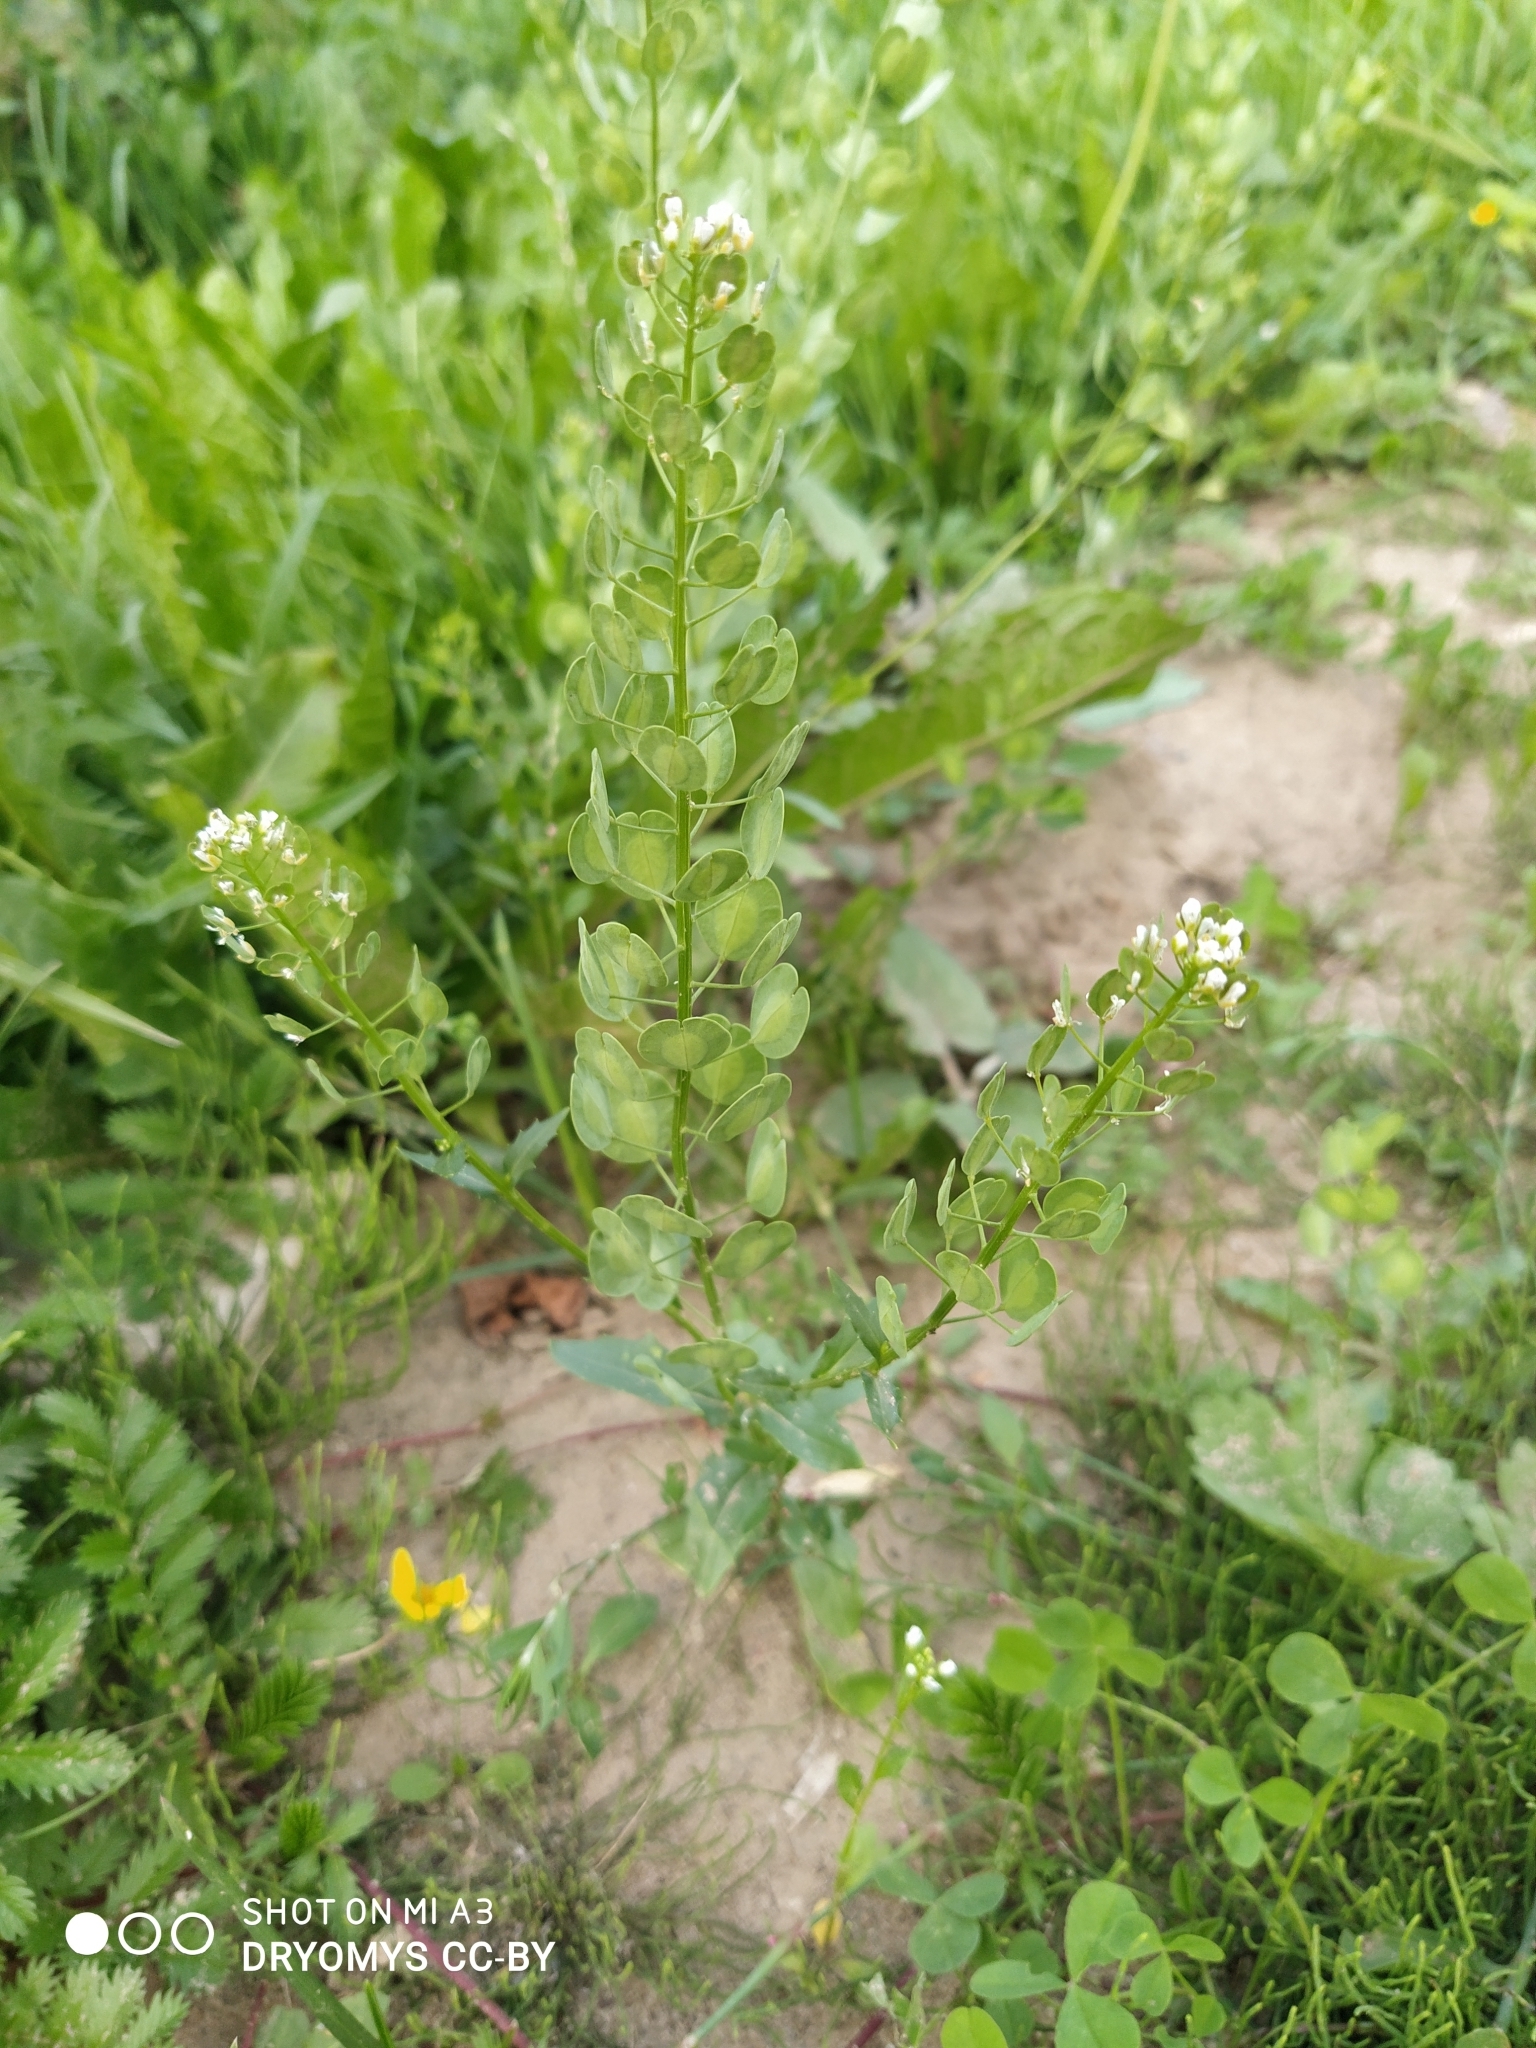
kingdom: Plantae
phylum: Tracheophyta
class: Magnoliopsida
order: Brassicales
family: Brassicaceae
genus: Thlaspi
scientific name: Thlaspi arvense
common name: Field pennycress
